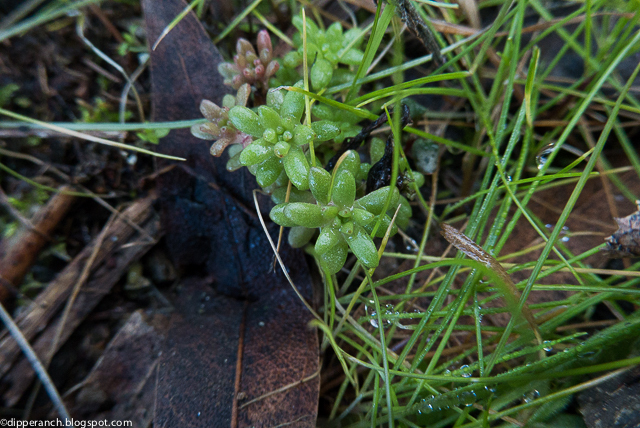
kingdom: Plantae
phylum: Tracheophyta
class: Magnoliopsida
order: Saxifragales
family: Crassulaceae
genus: Sedum
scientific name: Sedum radiatum
